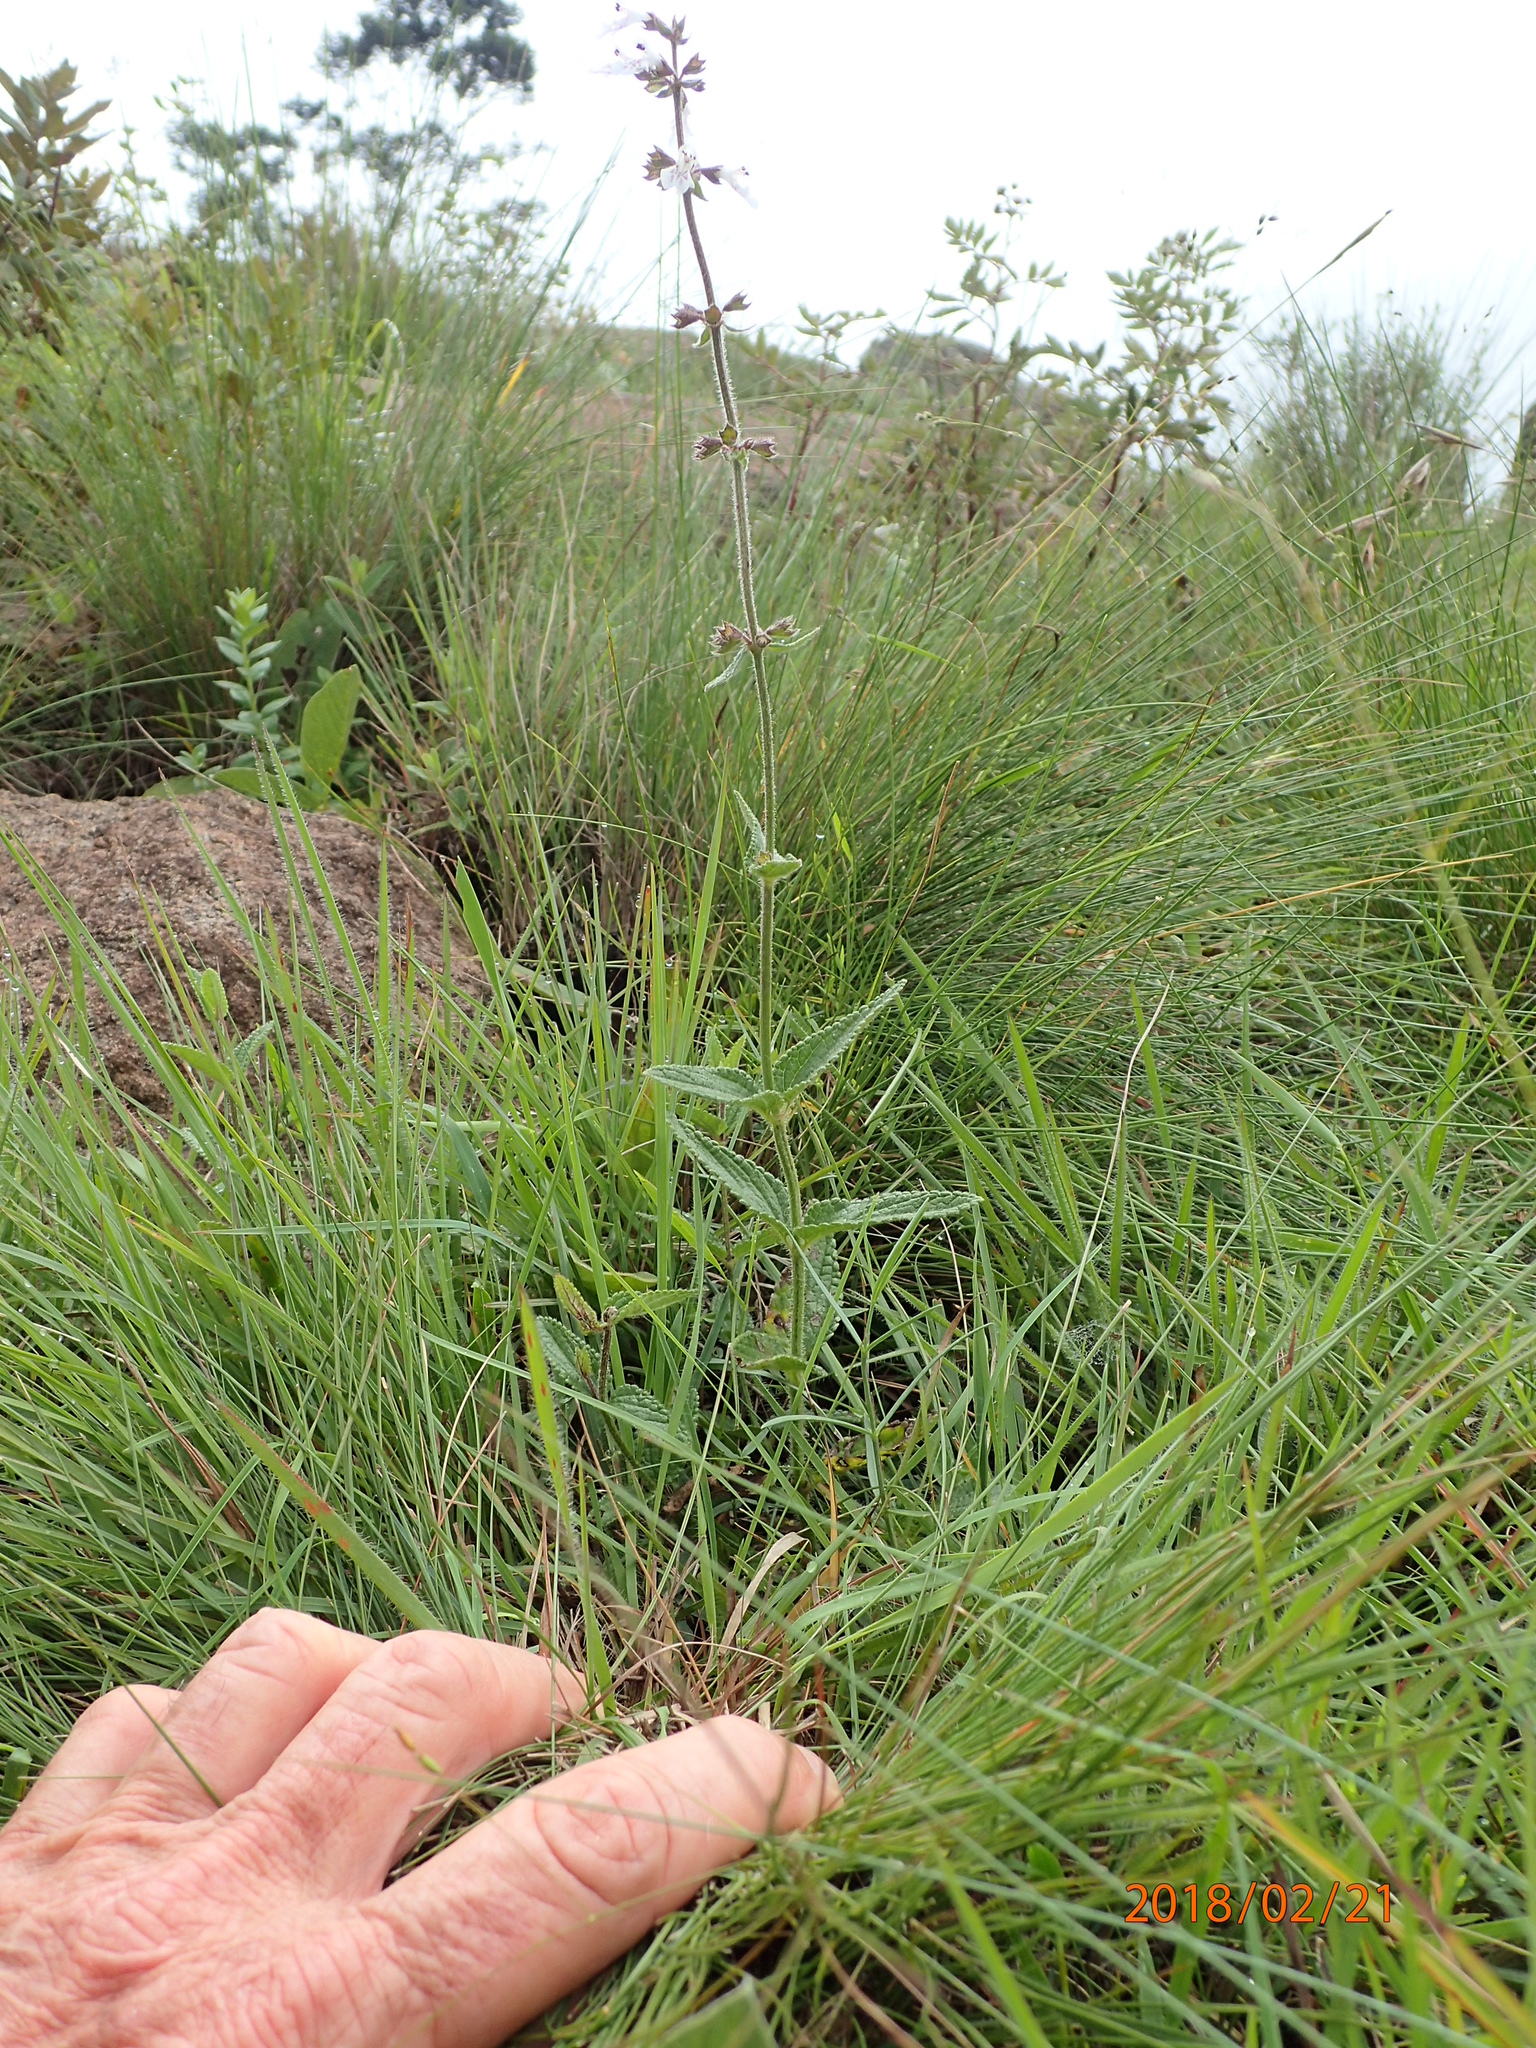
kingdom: Plantae
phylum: Tracheophyta
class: Magnoliopsida
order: Lamiales
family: Lamiaceae
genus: Stachys
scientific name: Stachys rivularis
